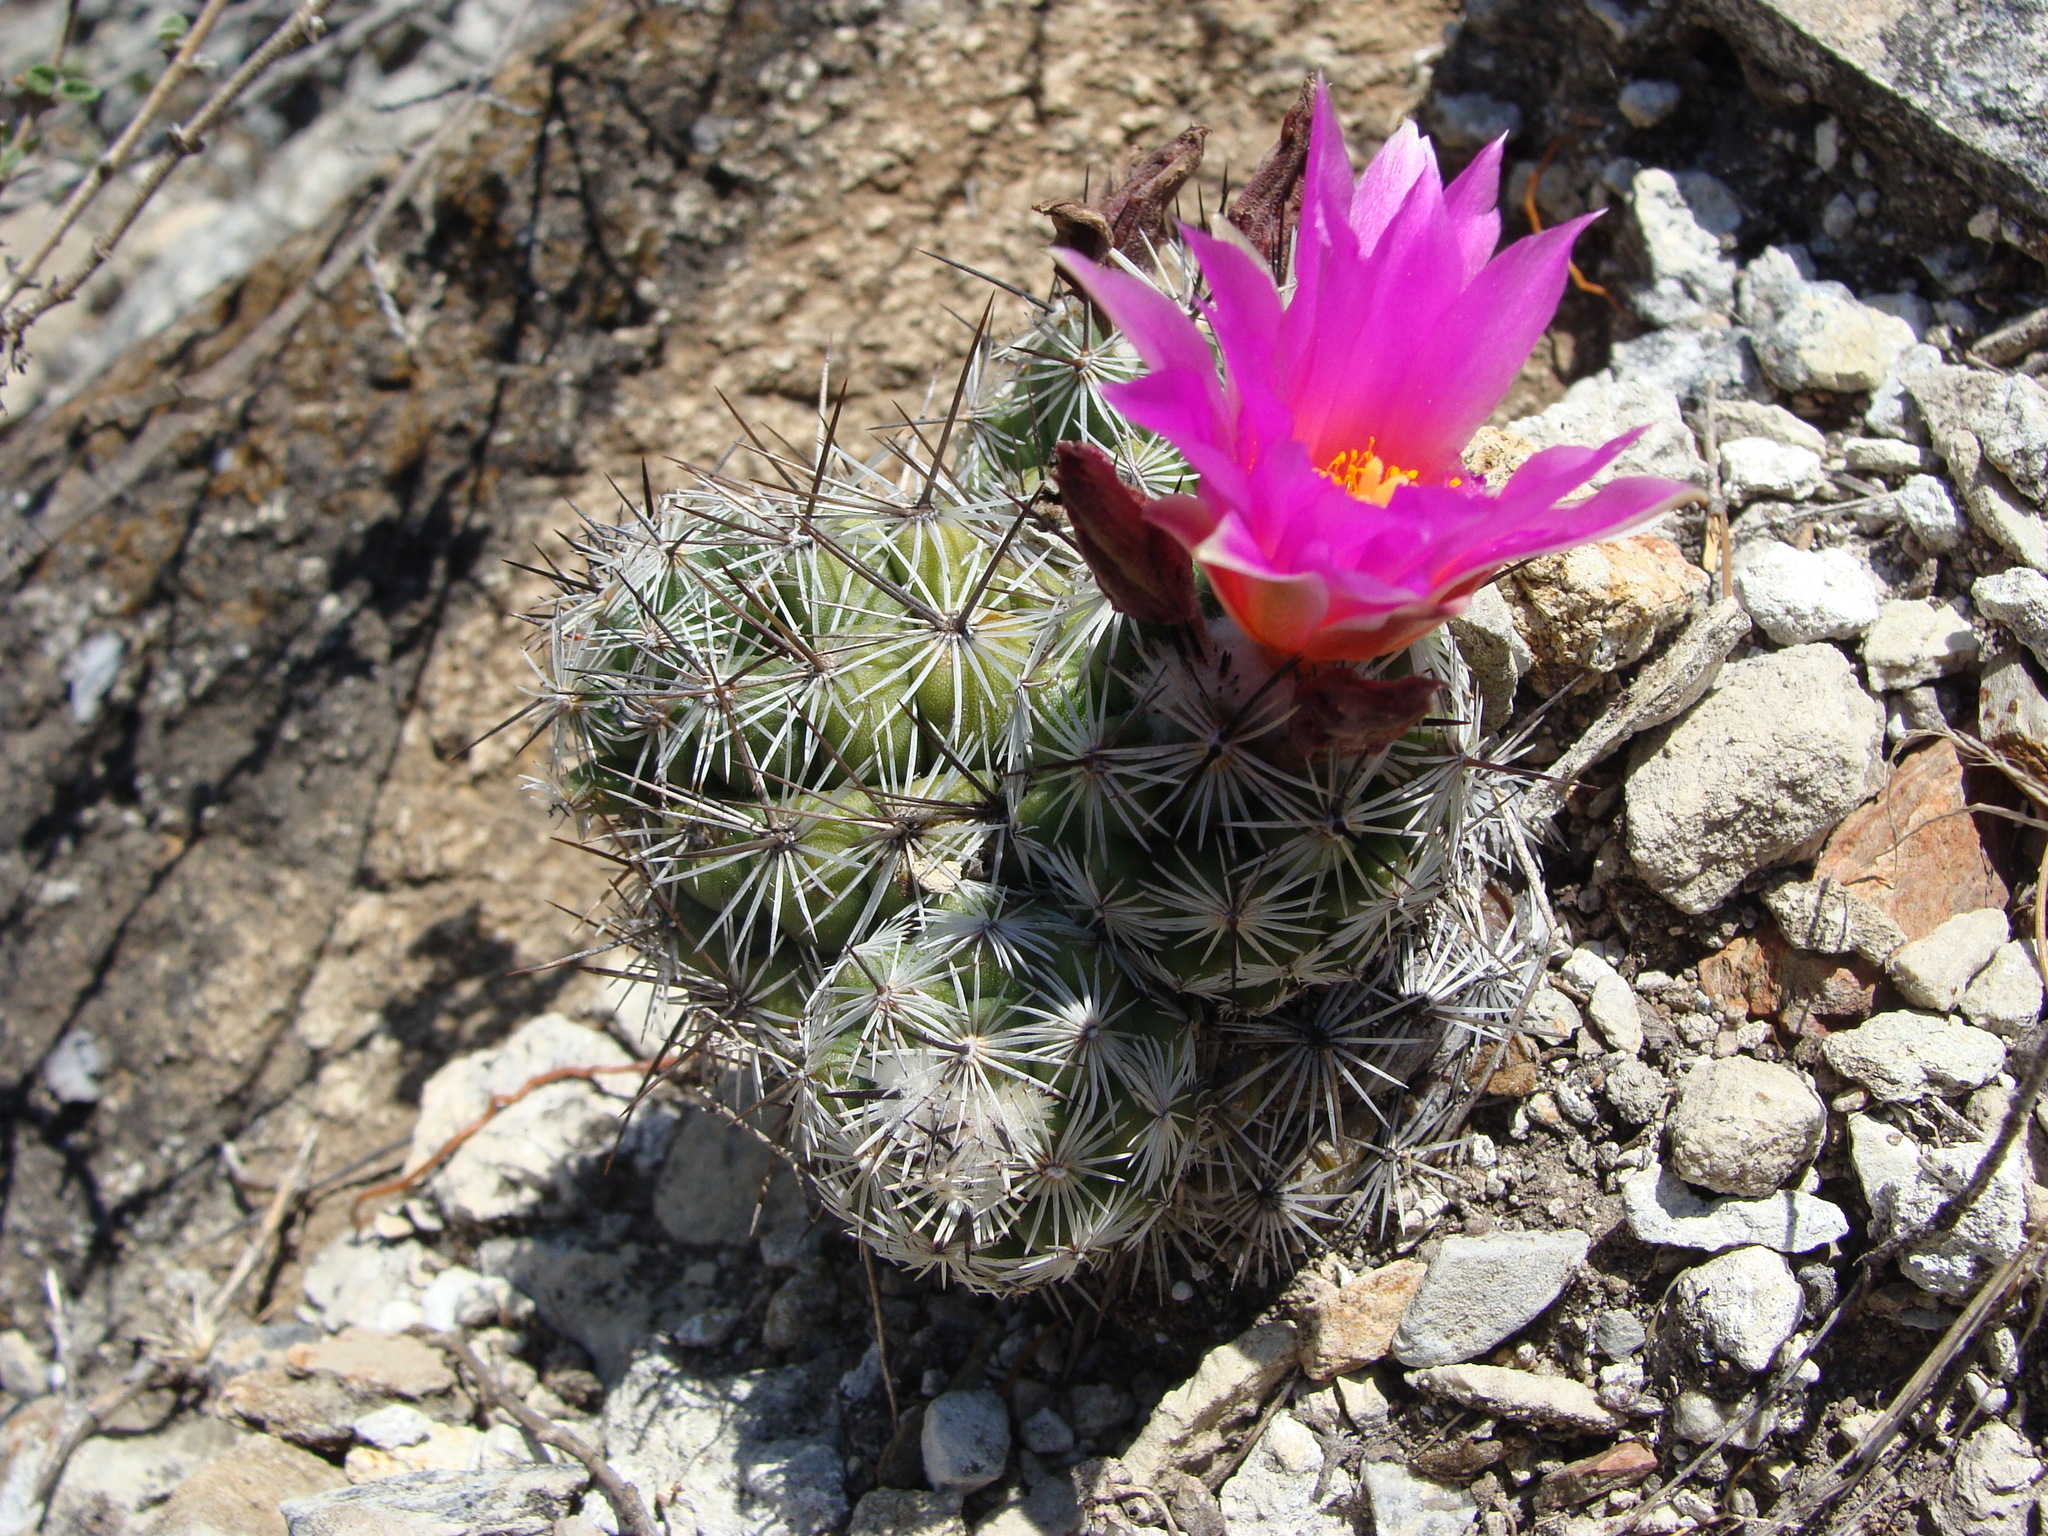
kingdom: Plantae
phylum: Tracheophyta
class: Magnoliopsida
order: Caryophyllales
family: Cactaceae
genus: Cochemiea
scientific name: Cochemiea conoidea
